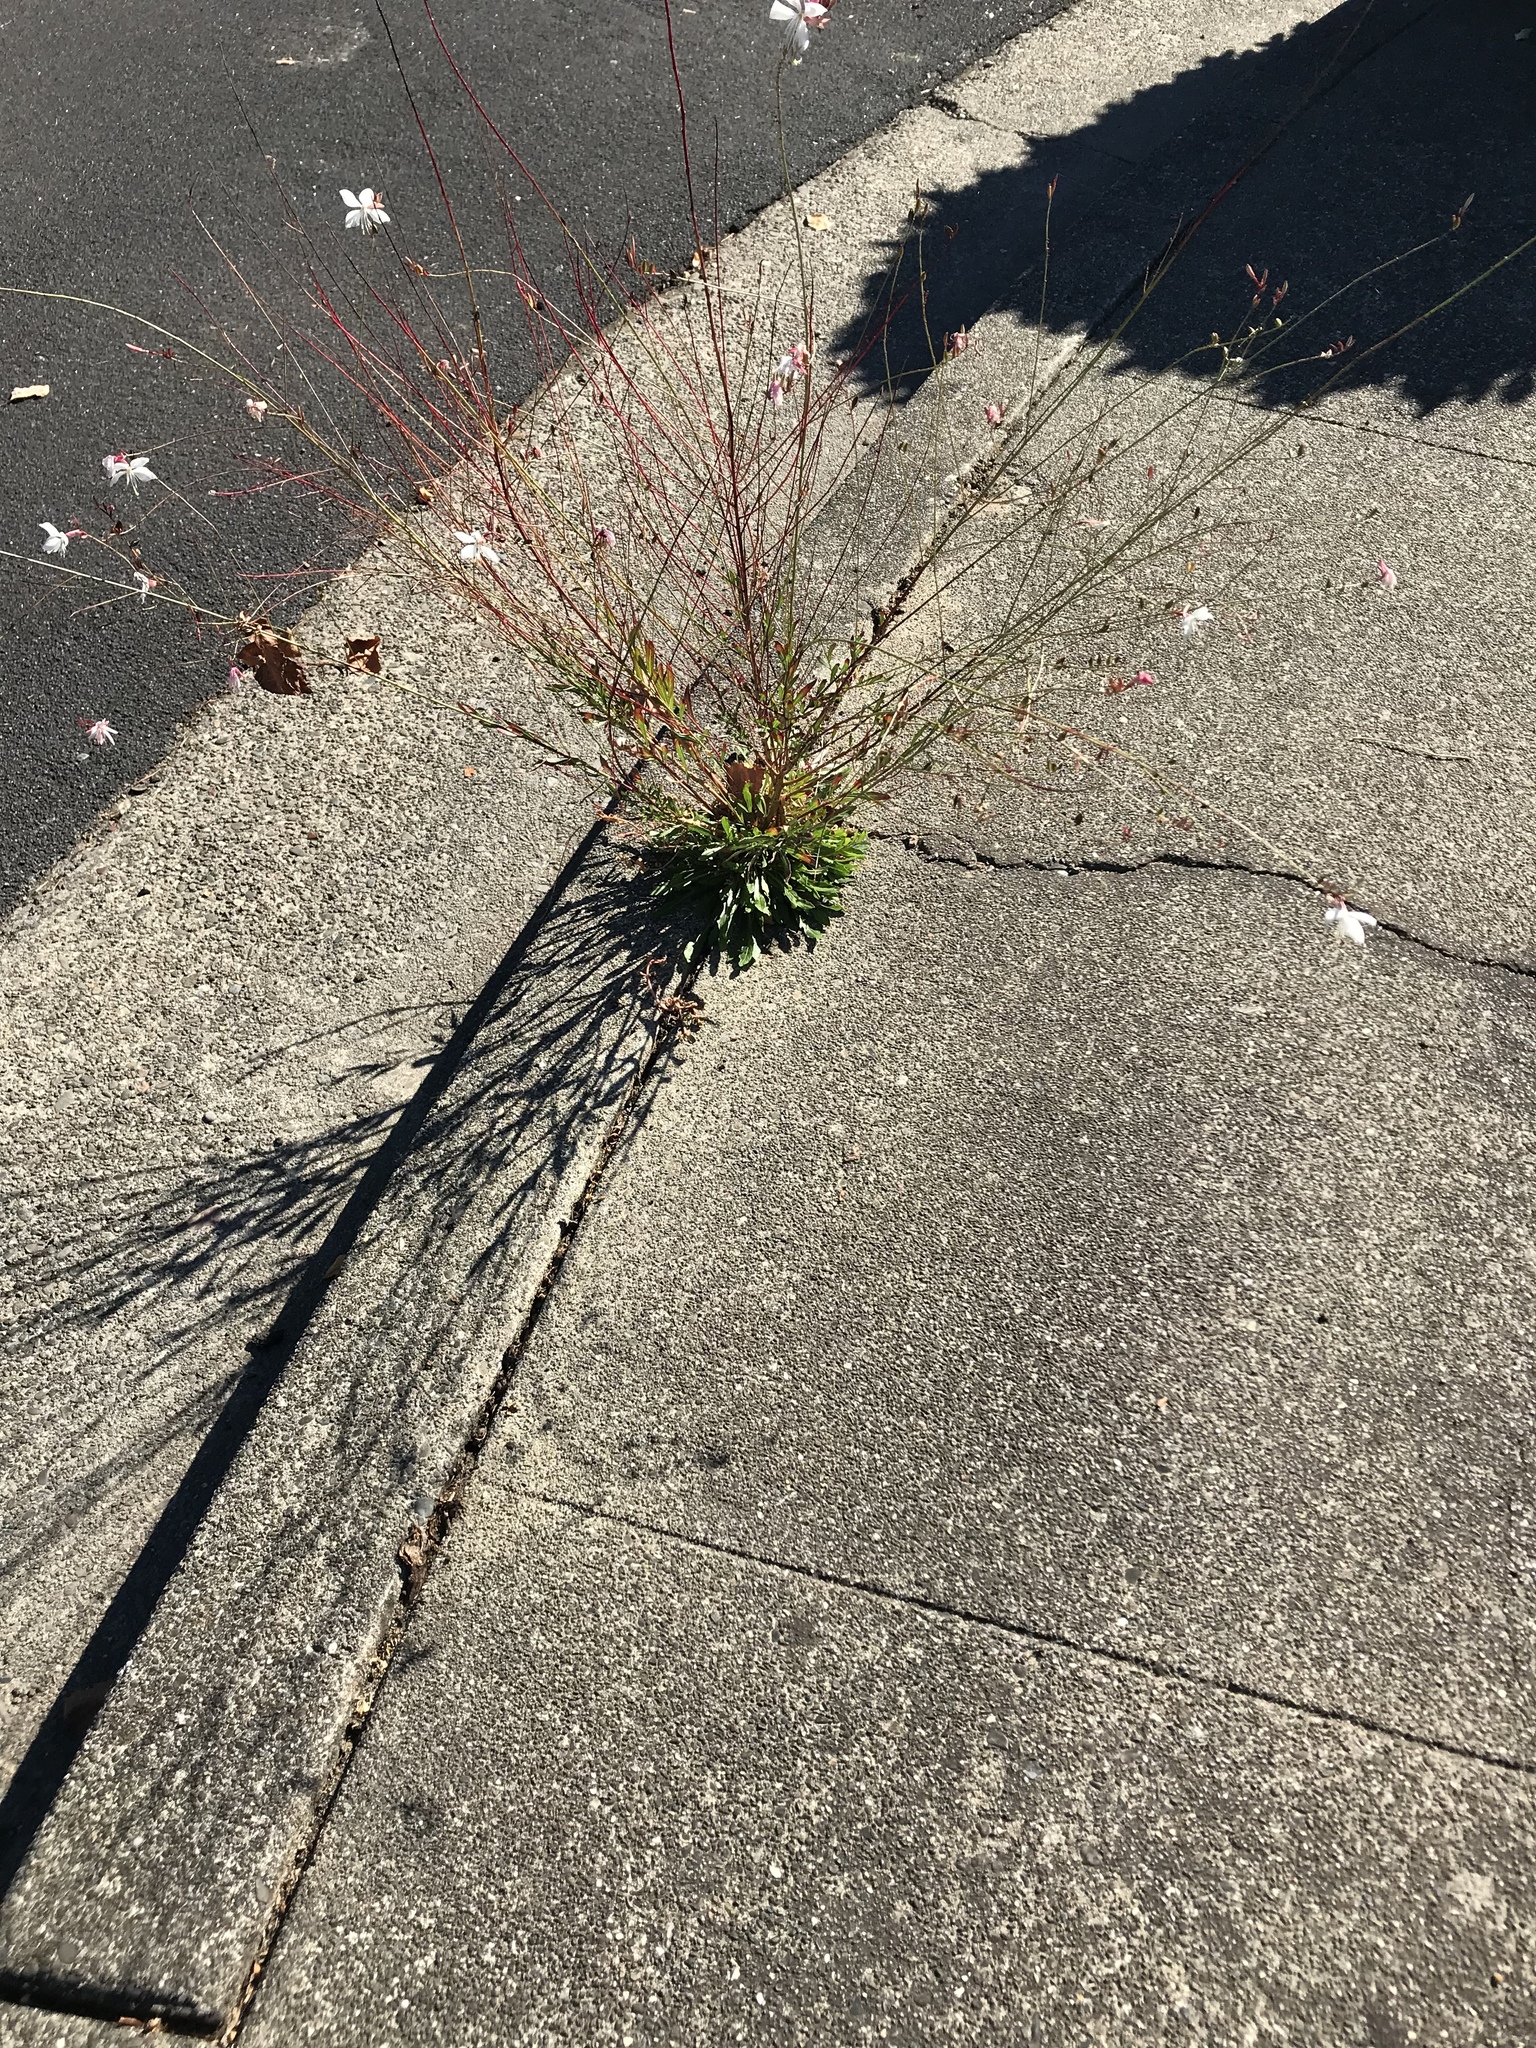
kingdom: Plantae
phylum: Tracheophyta
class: Magnoliopsida
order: Myrtales
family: Onagraceae
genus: Oenothera
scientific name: Oenothera lindheimeri
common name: Lindheimer's beeblossom
